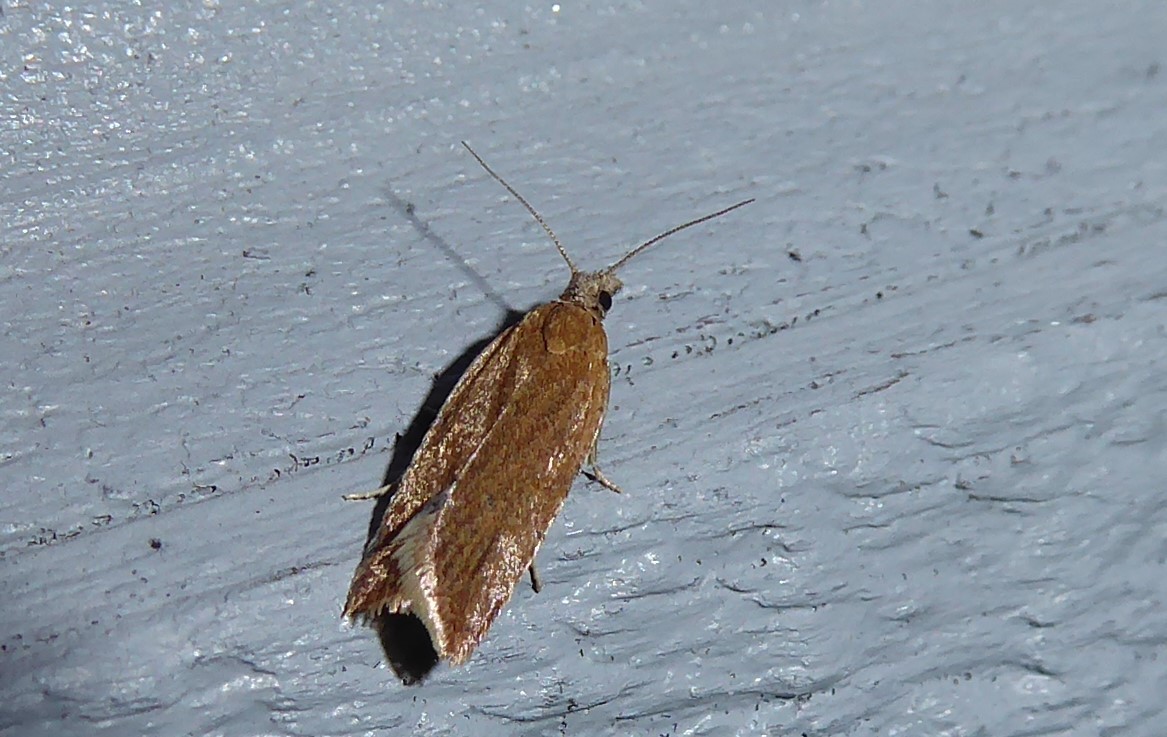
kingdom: Animalia
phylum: Arthropoda
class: Insecta
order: Lepidoptera
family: Tortricidae
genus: Capua
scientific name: Capua semiferana
